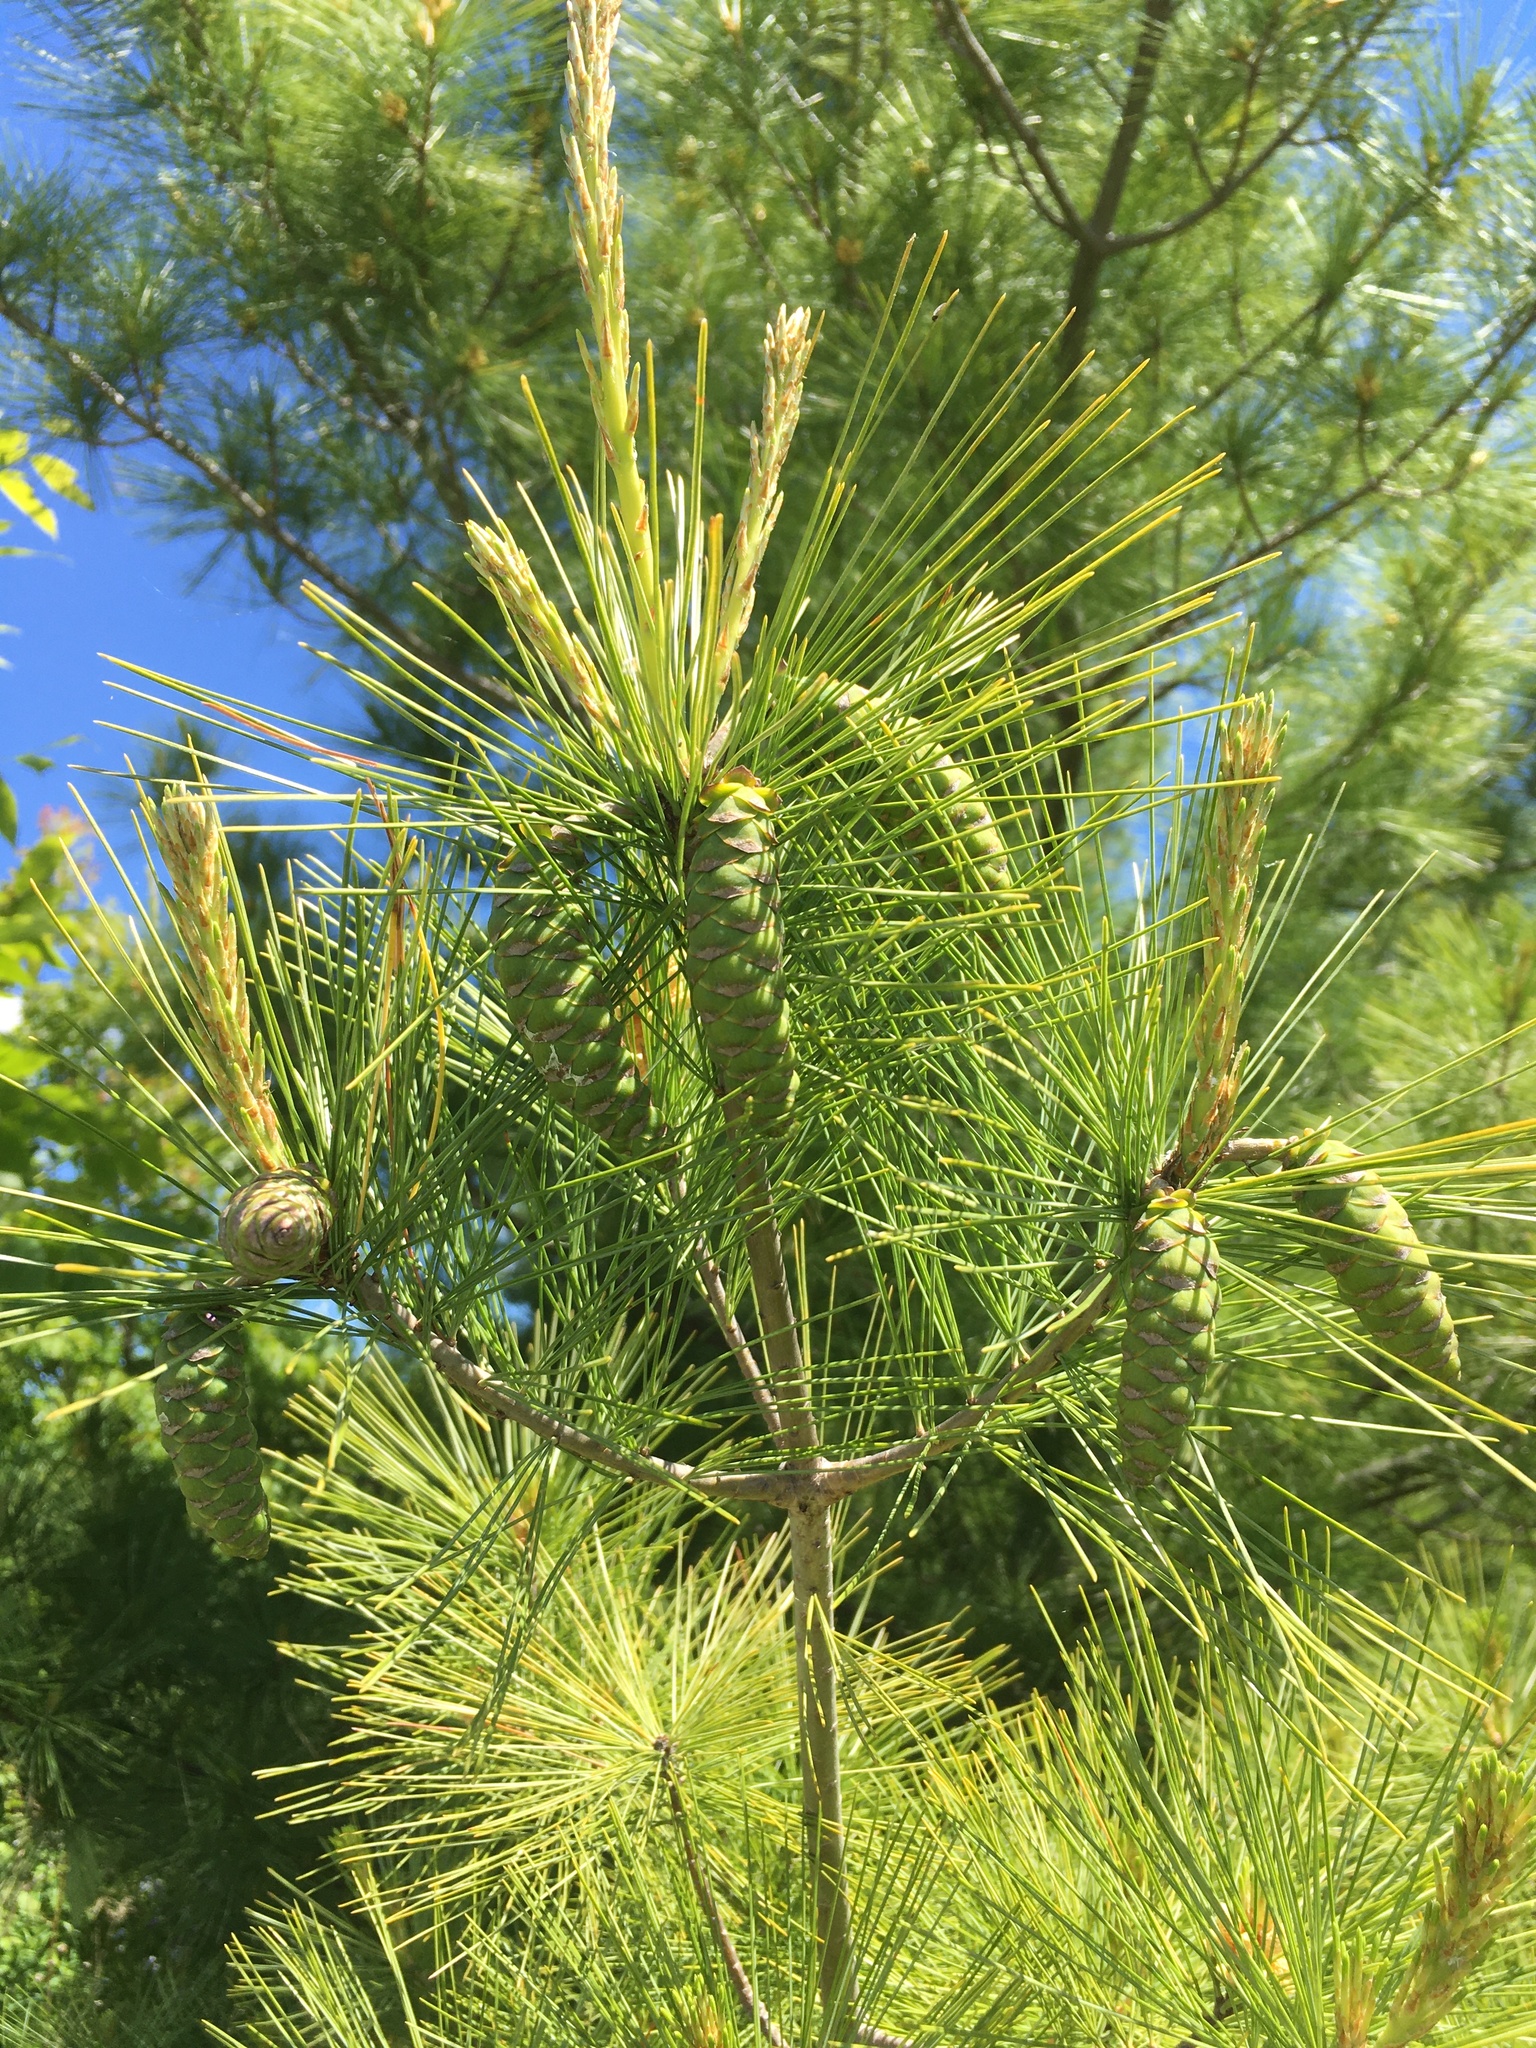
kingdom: Plantae
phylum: Tracheophyta
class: Pinopsida
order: Pinales
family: Pinaceae
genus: Pinus
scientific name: Pinus strobus
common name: Weymouth pine
